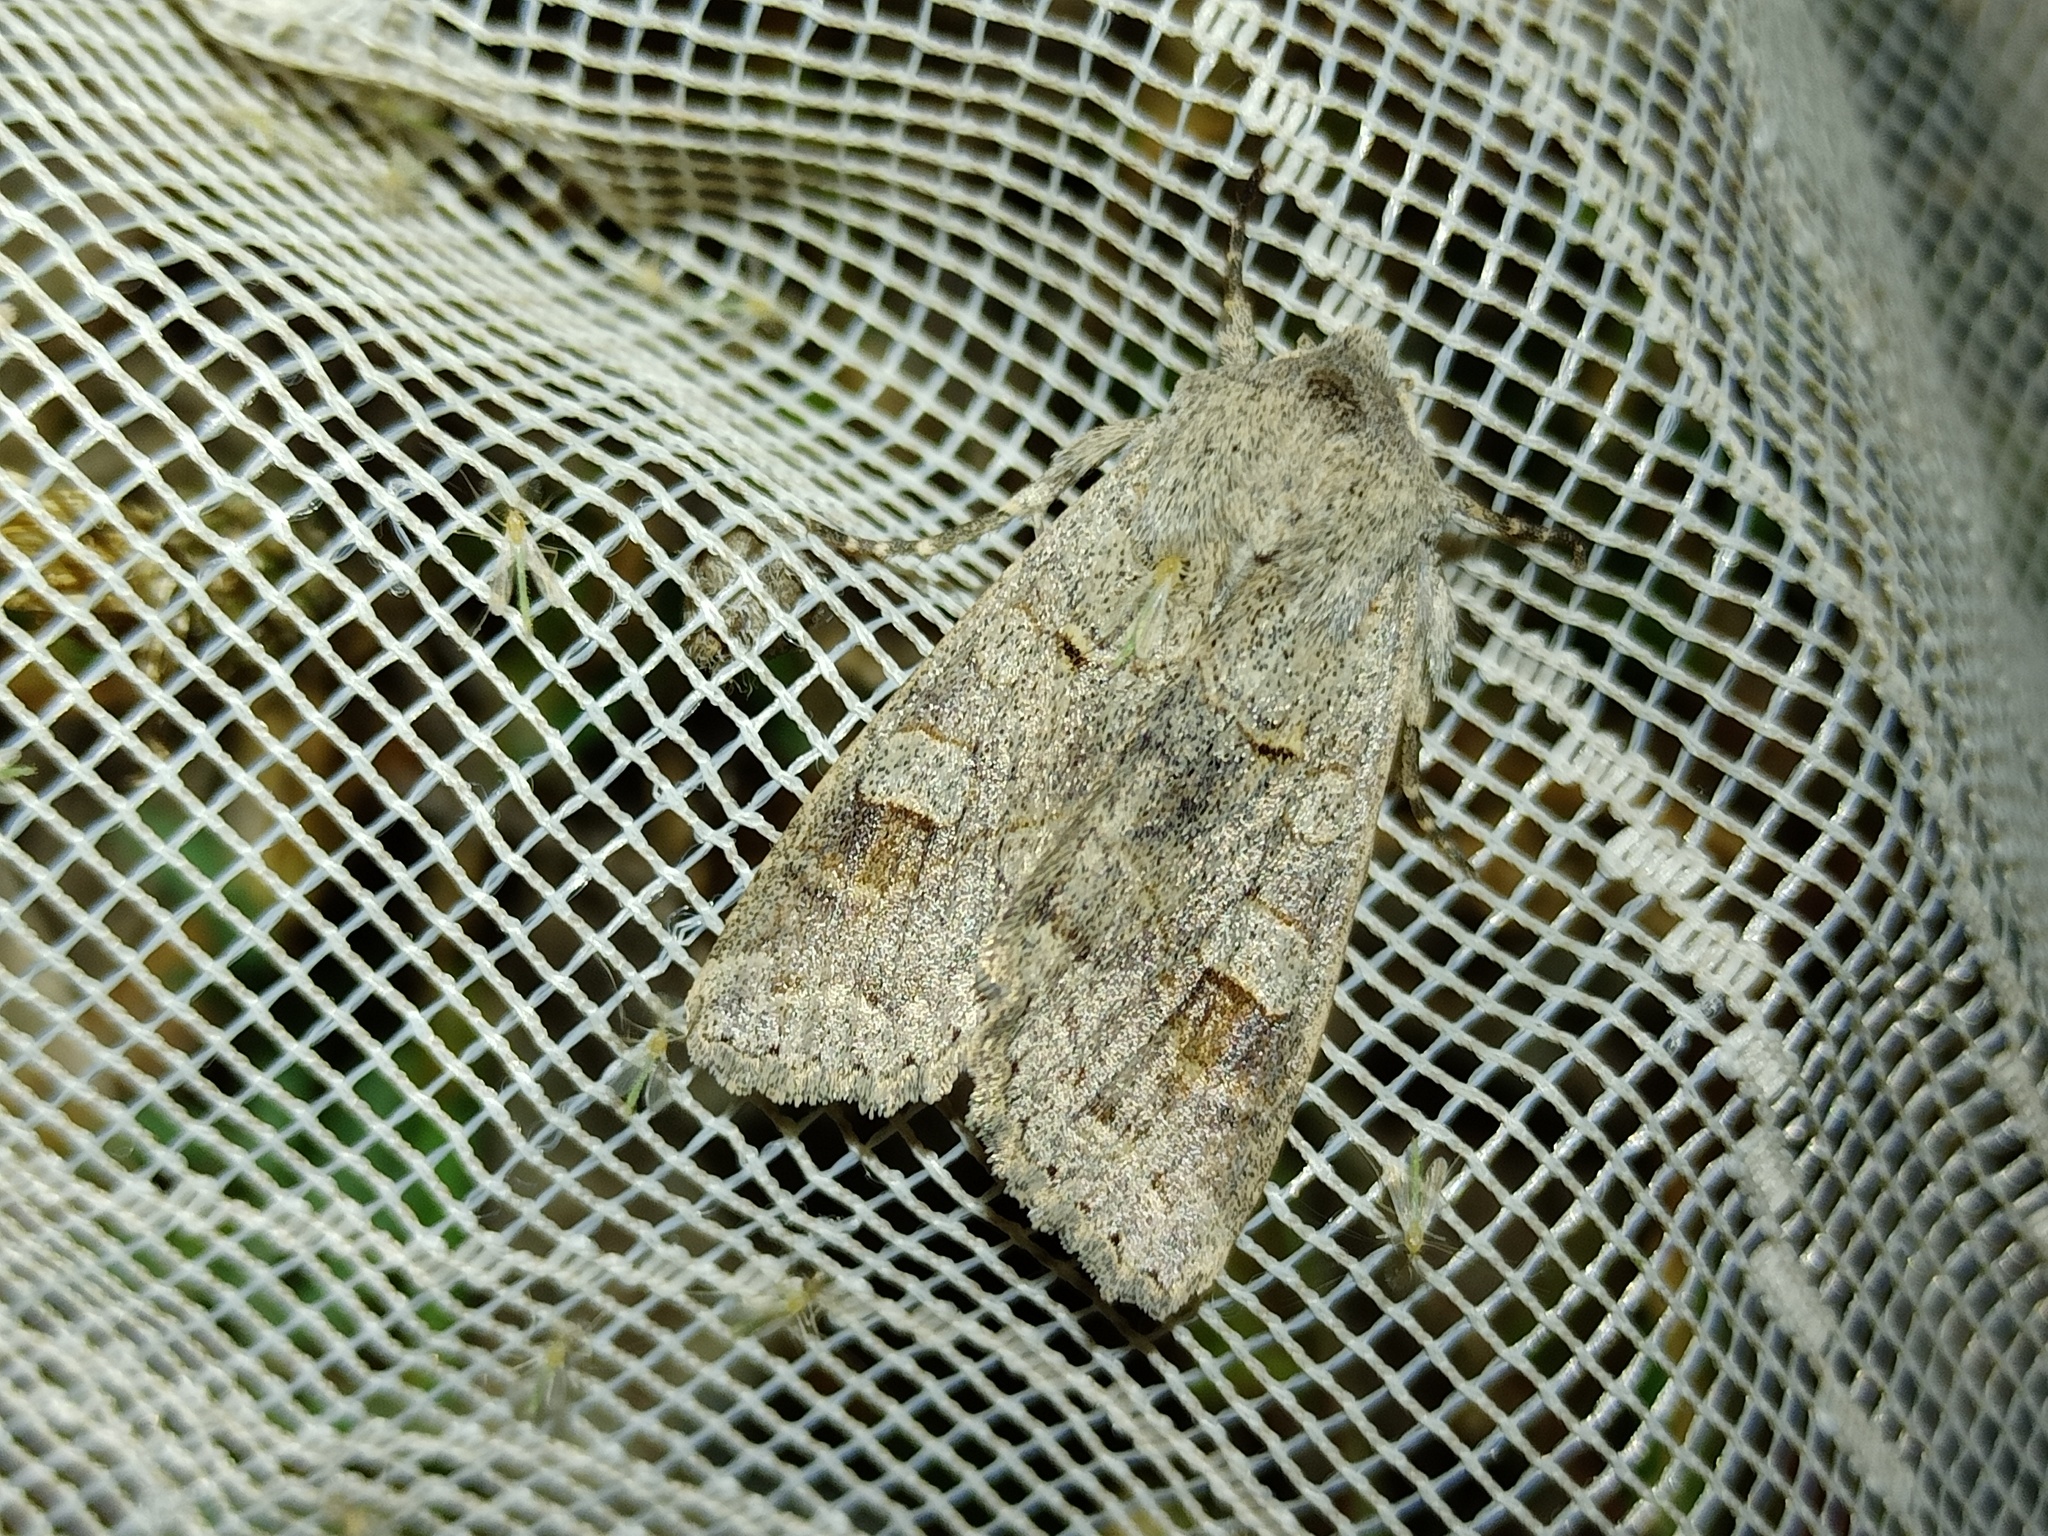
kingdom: Animalia
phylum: Arthropoda
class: Insecta
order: Lepidoptera
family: Noctuidae
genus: Ammoconia
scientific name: Ammoconia caecimacula
